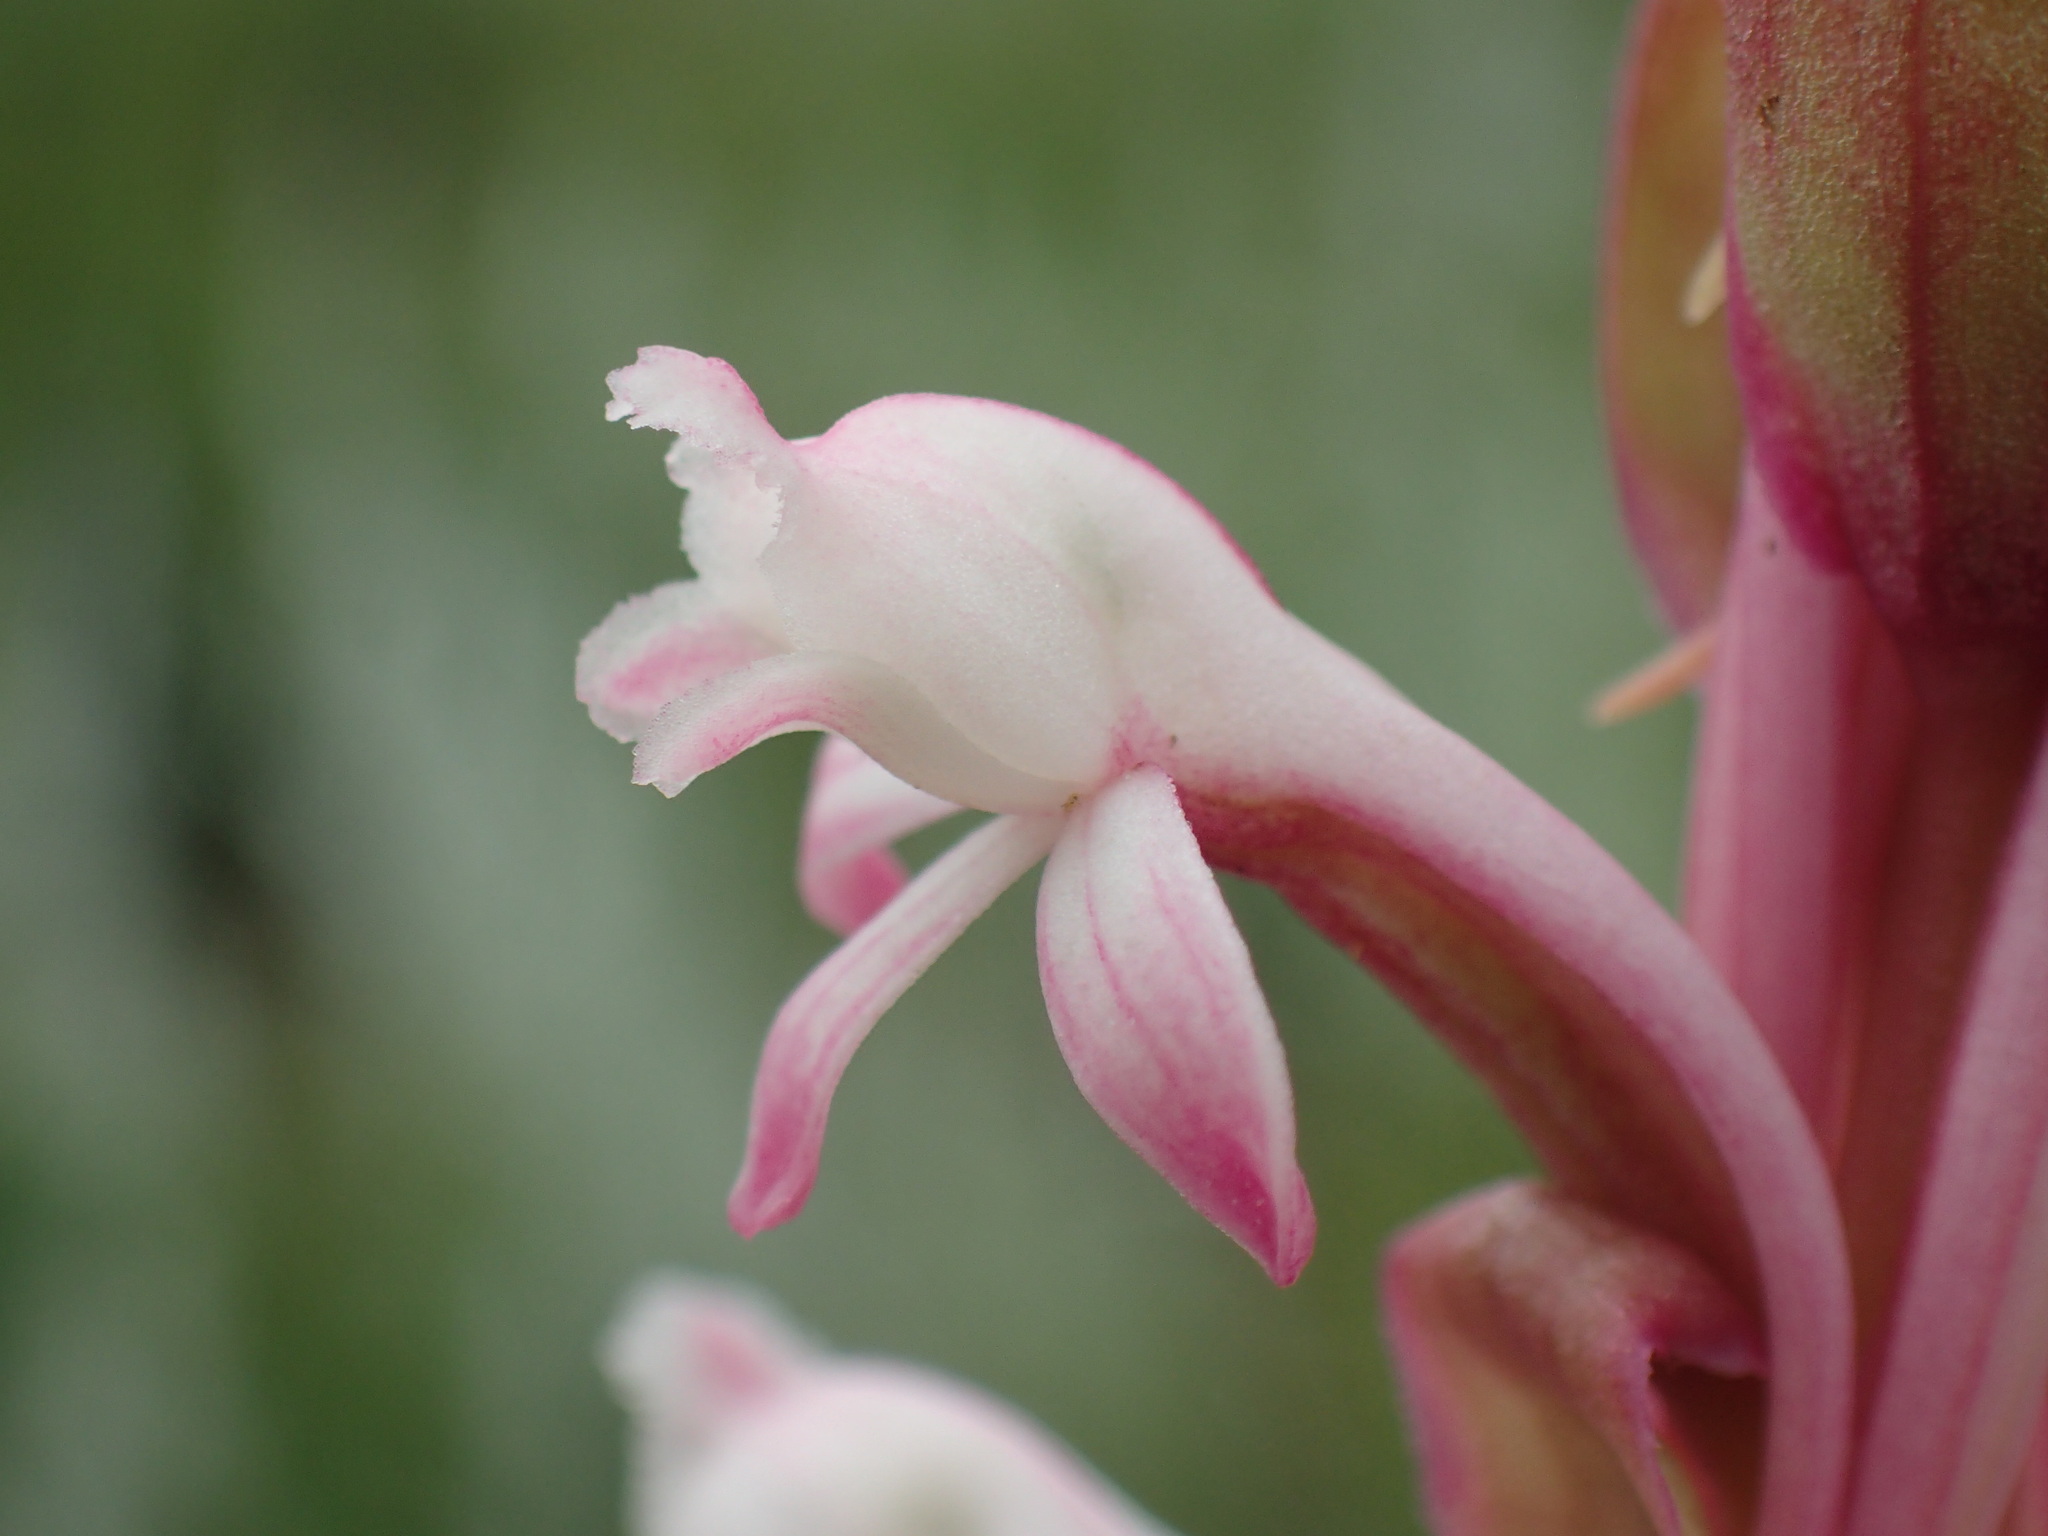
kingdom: Plantae
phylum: Tracheophyta
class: Liliopsida
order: Asparagales
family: Orchidaceae
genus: Satyrium
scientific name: Satyrium longicauda
